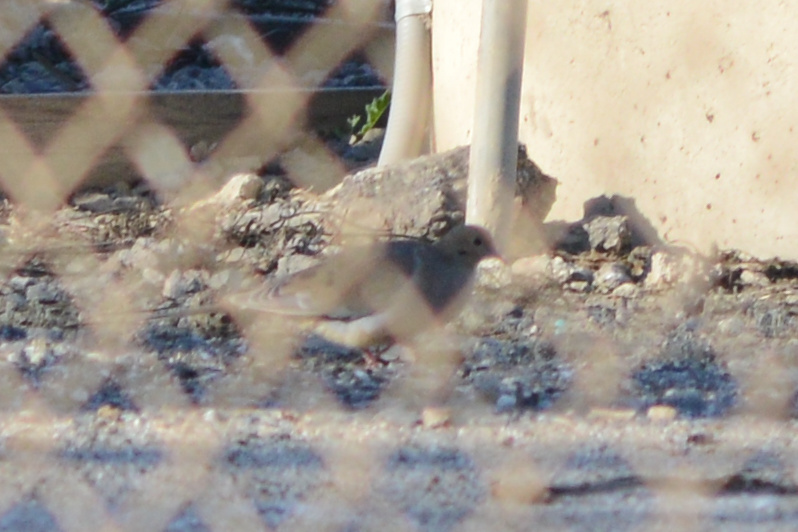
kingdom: Animalia
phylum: Chordata
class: Aves
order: Columbiformes
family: Columbidae
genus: Zenaida
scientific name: Zenaida macroura
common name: Mourning dove
